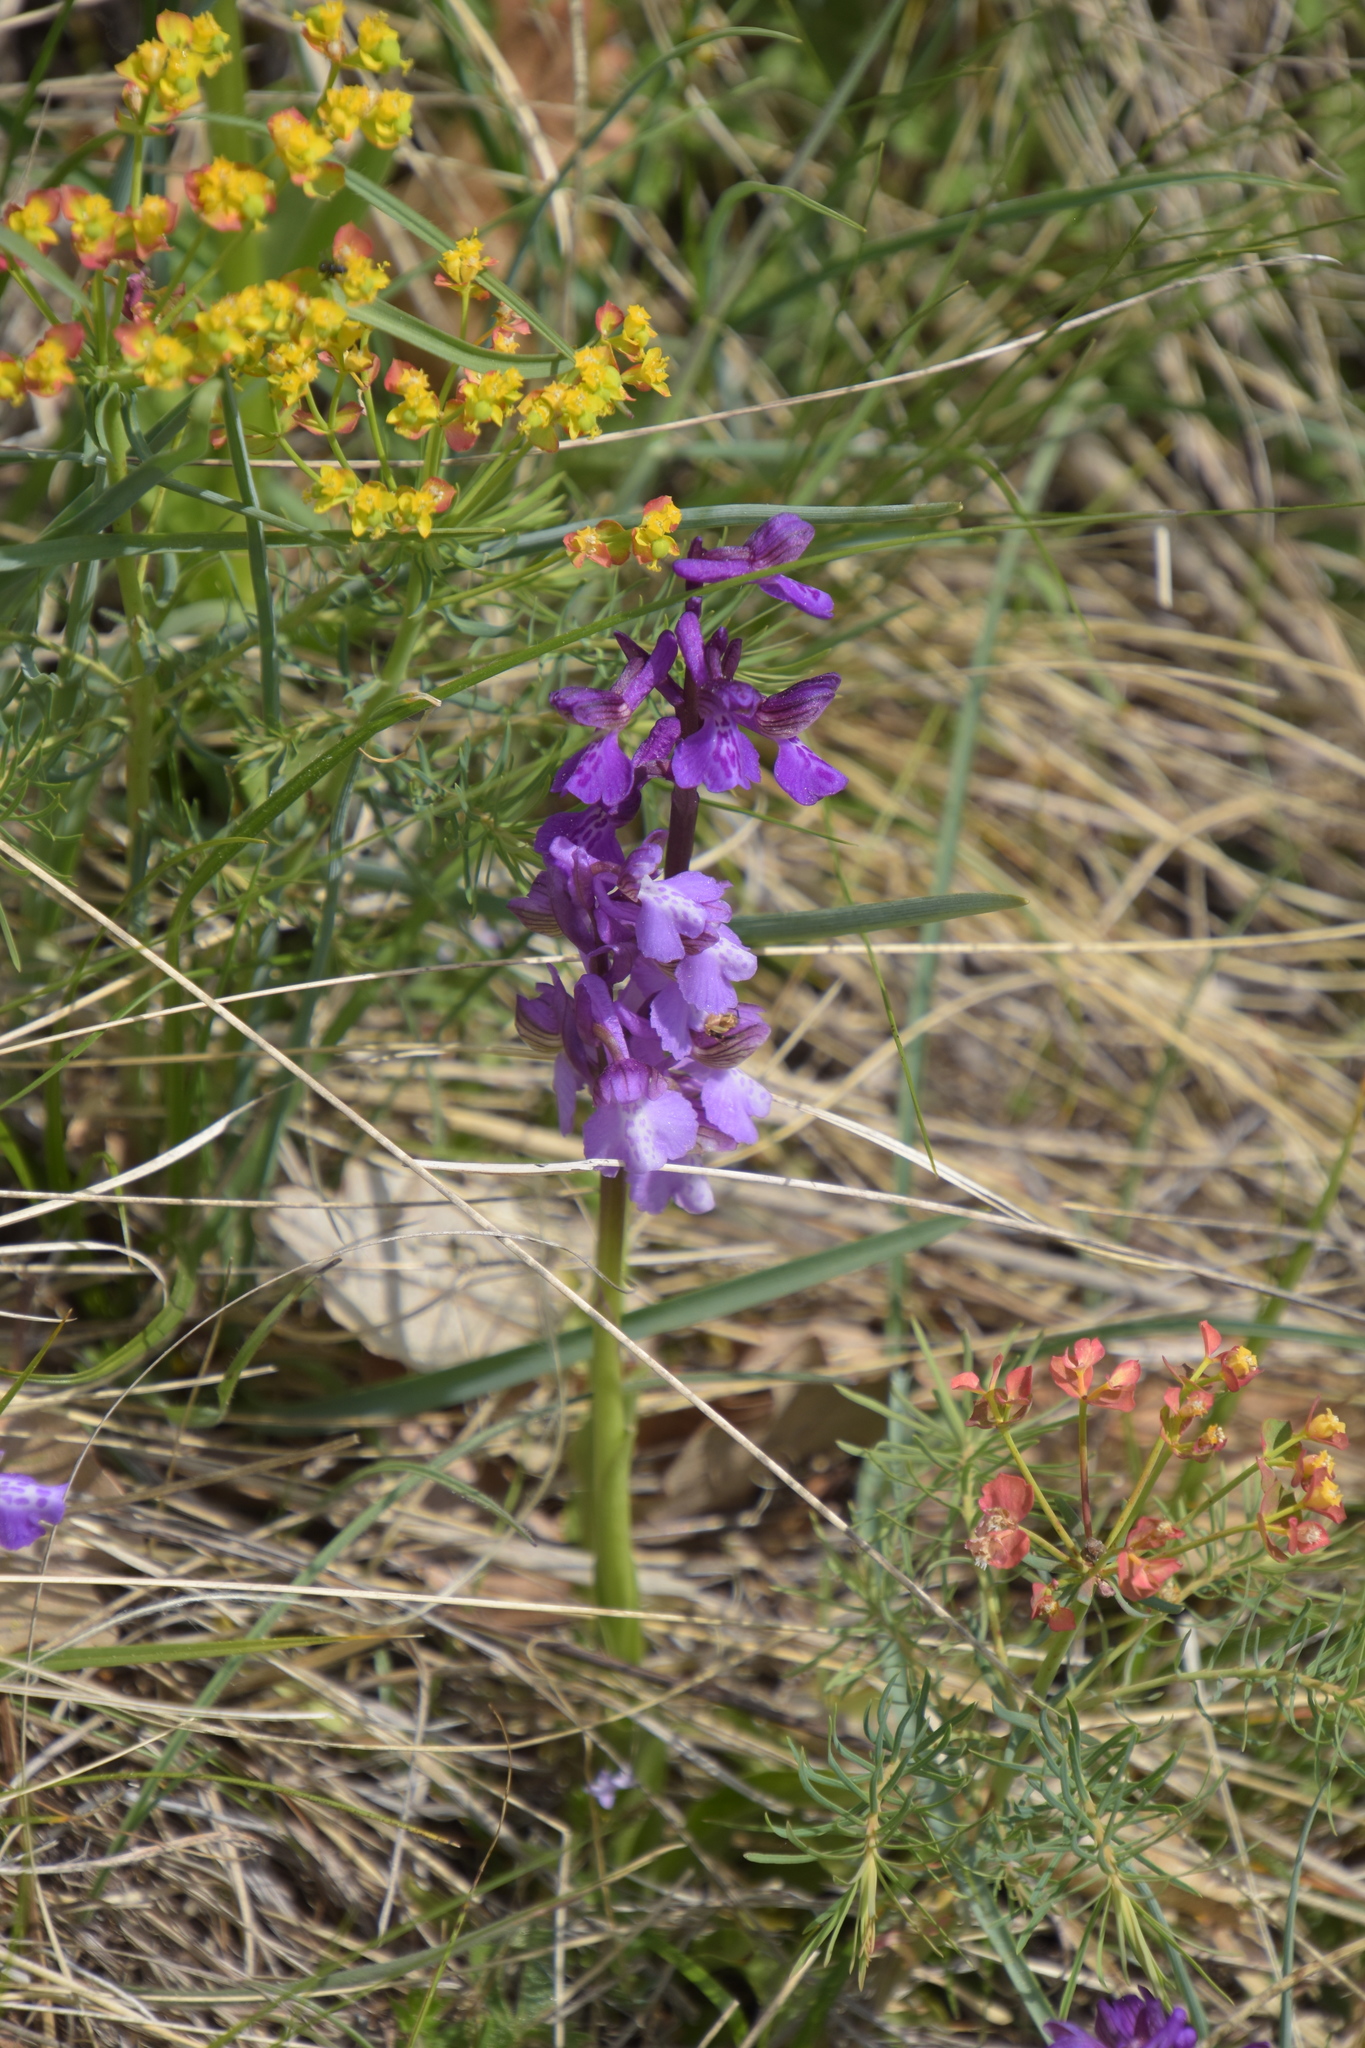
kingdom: Plantae
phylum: Tracheophyta
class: Liliopsida
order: Asparagales
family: Orchidaceae
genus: Anacamptis
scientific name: Anacamptis morio
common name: Green-winged orchid
